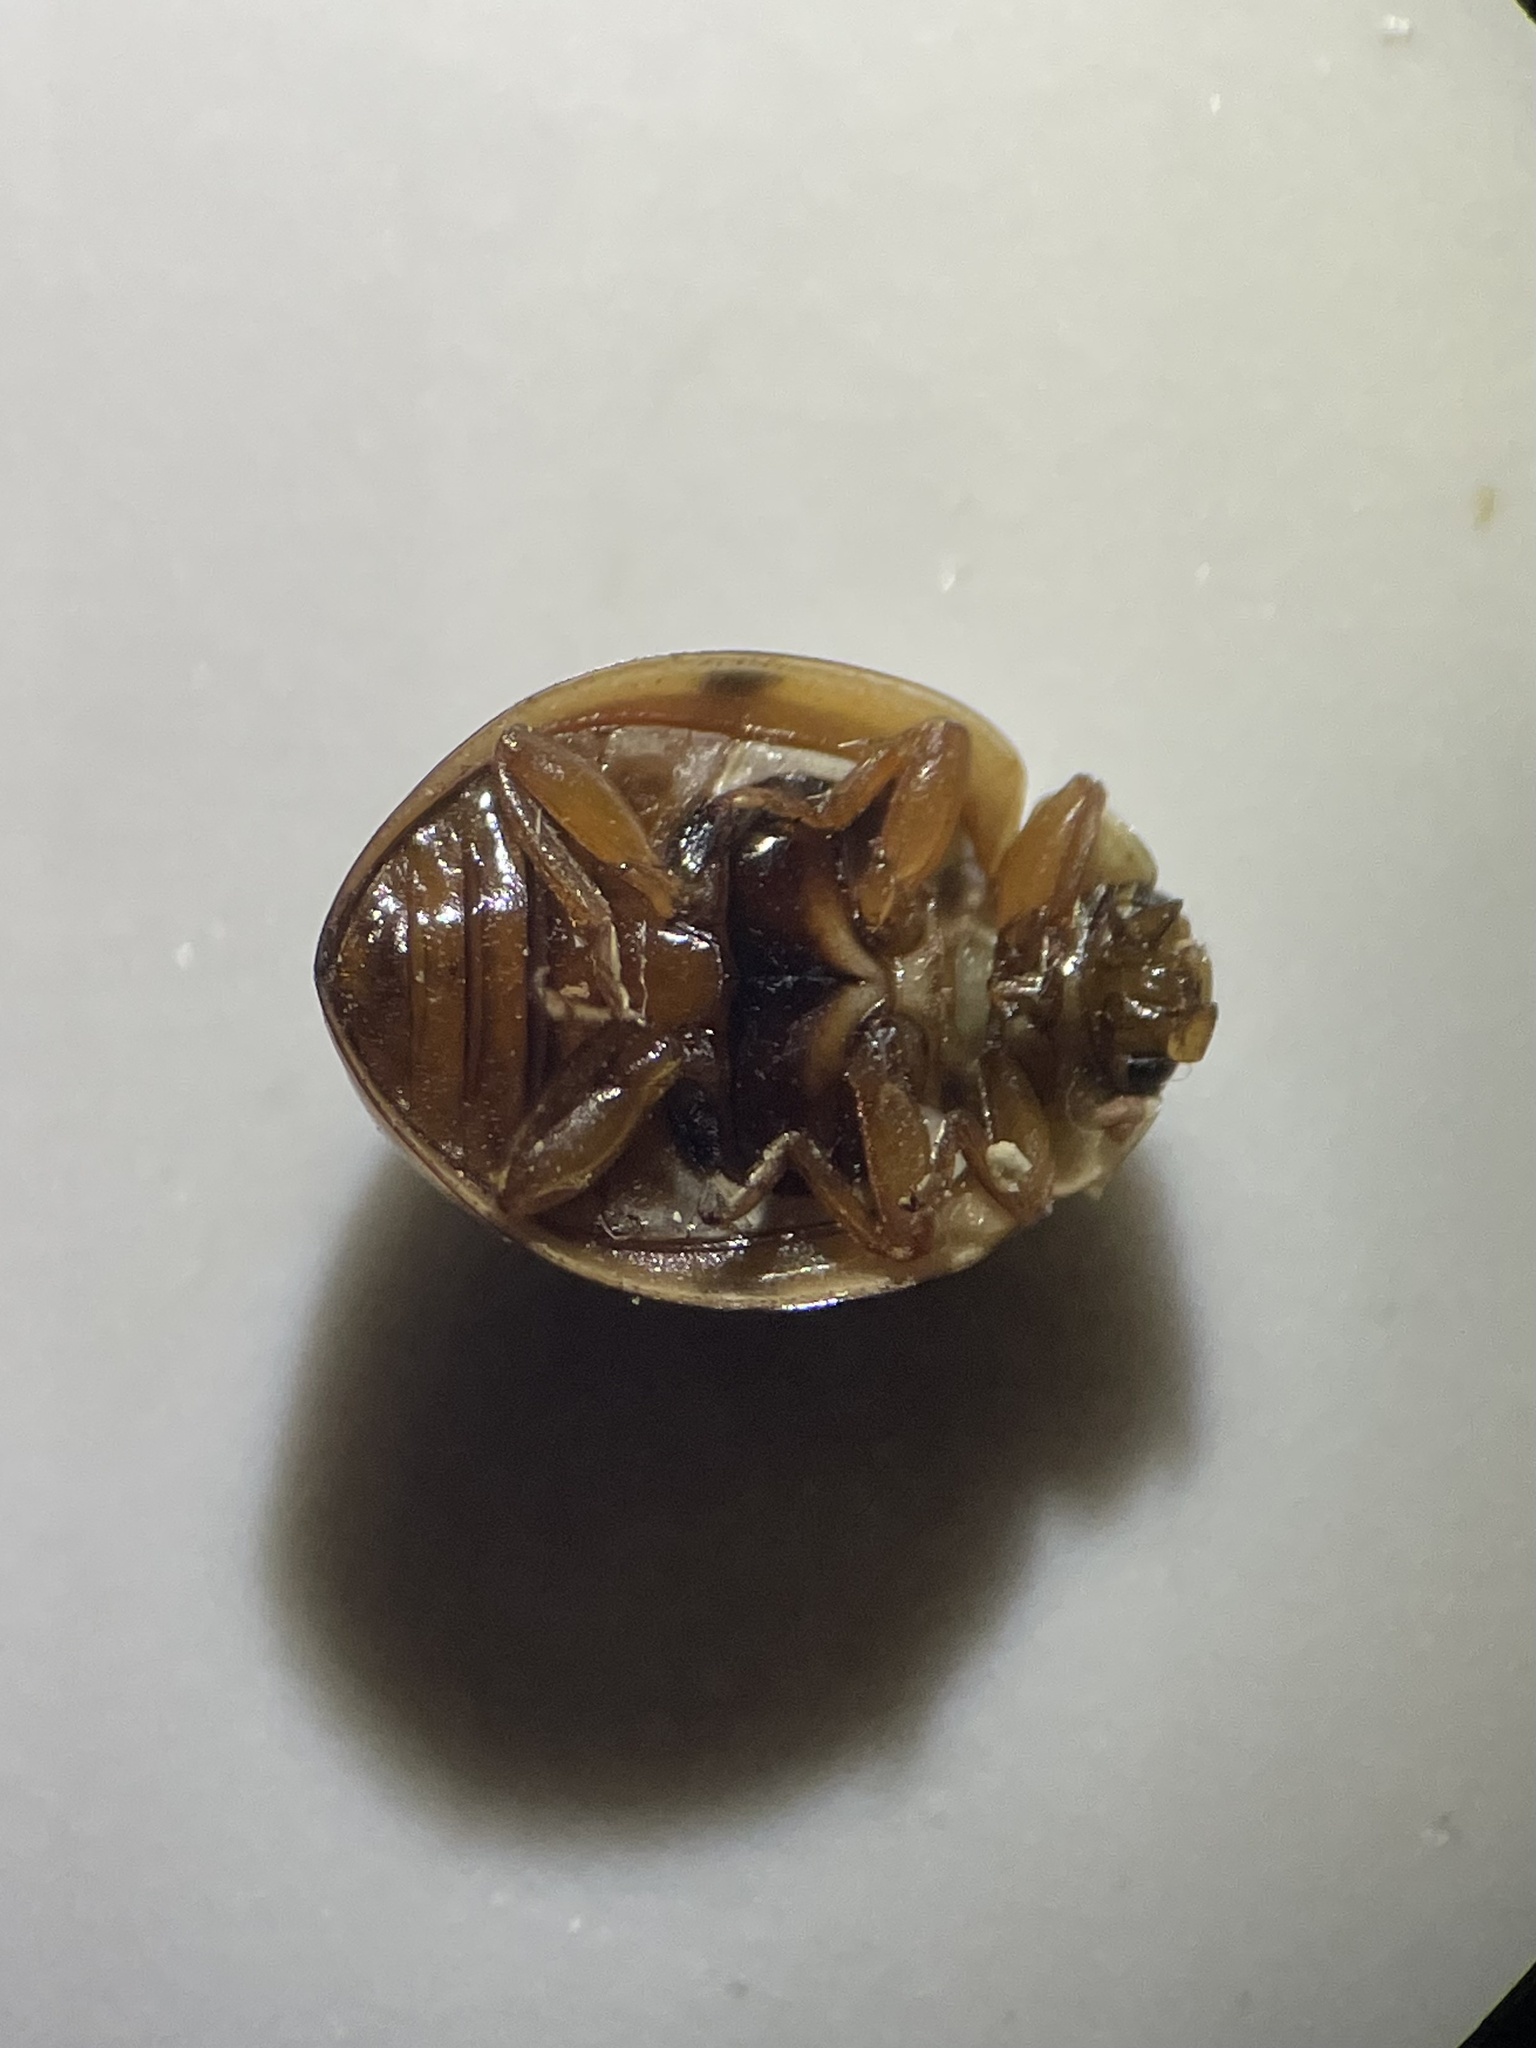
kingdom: Animalia
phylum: Arthropoda
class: Insecta
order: Coleoptera
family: Coccinellidae
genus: Olla
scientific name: Olla v-nigrum
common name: Ashy gray lady beetle
